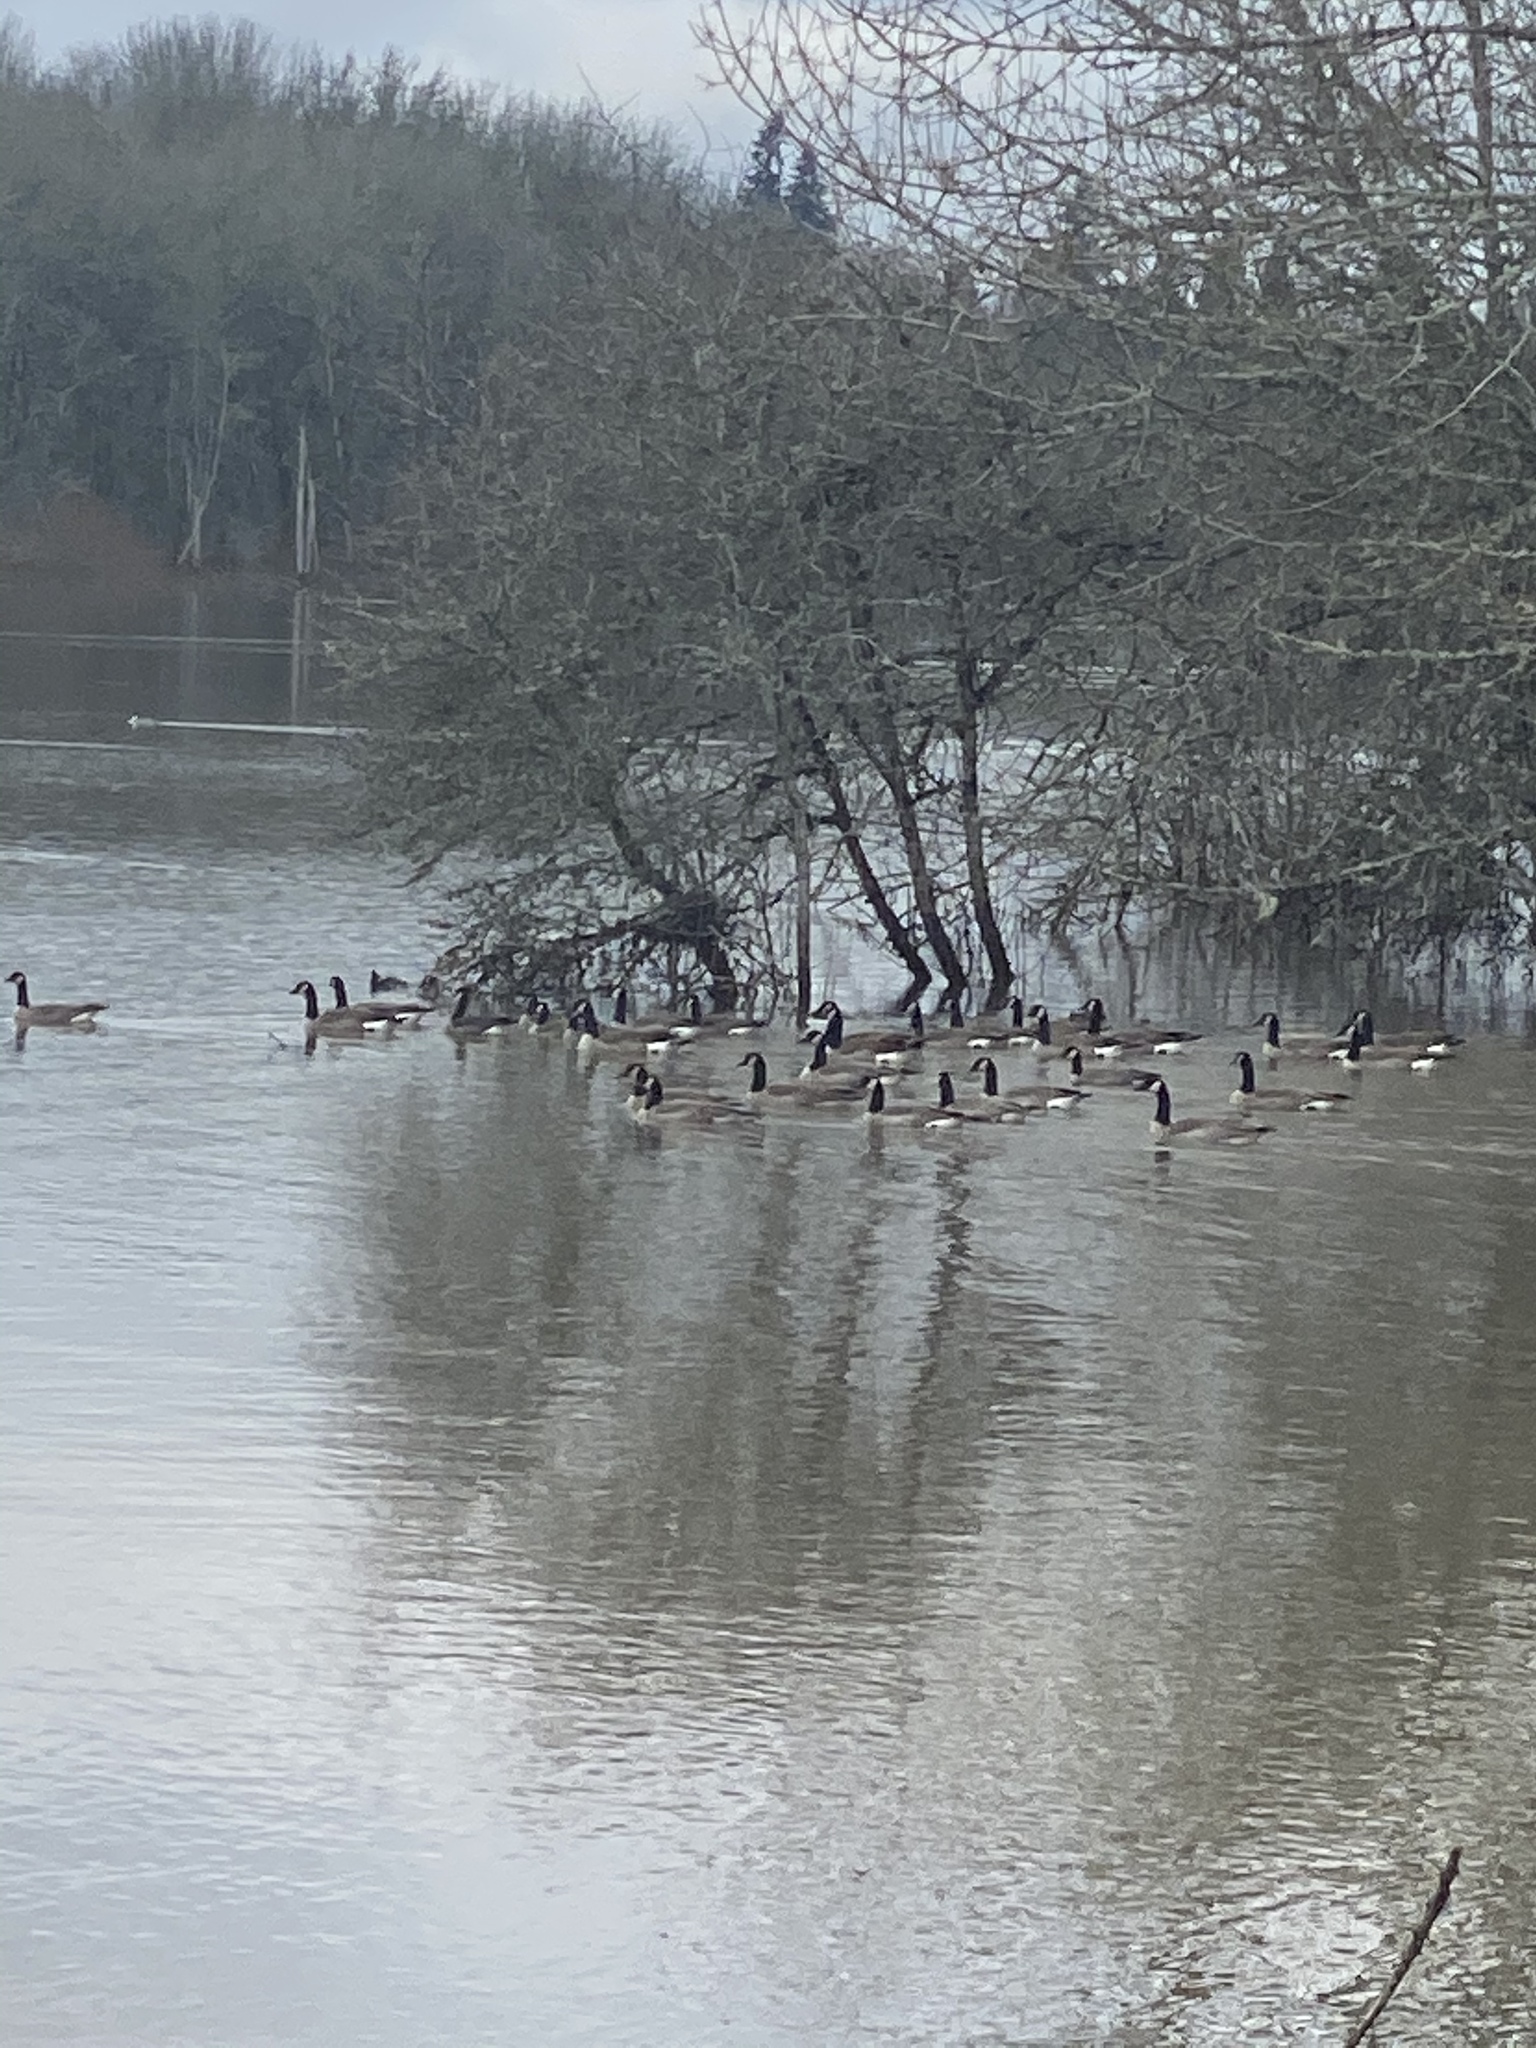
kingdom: Animalia
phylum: Chordata
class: Aves
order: Anseriformes
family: Anatidae
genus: Branta
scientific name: Branta canadensis
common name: Canada goose
